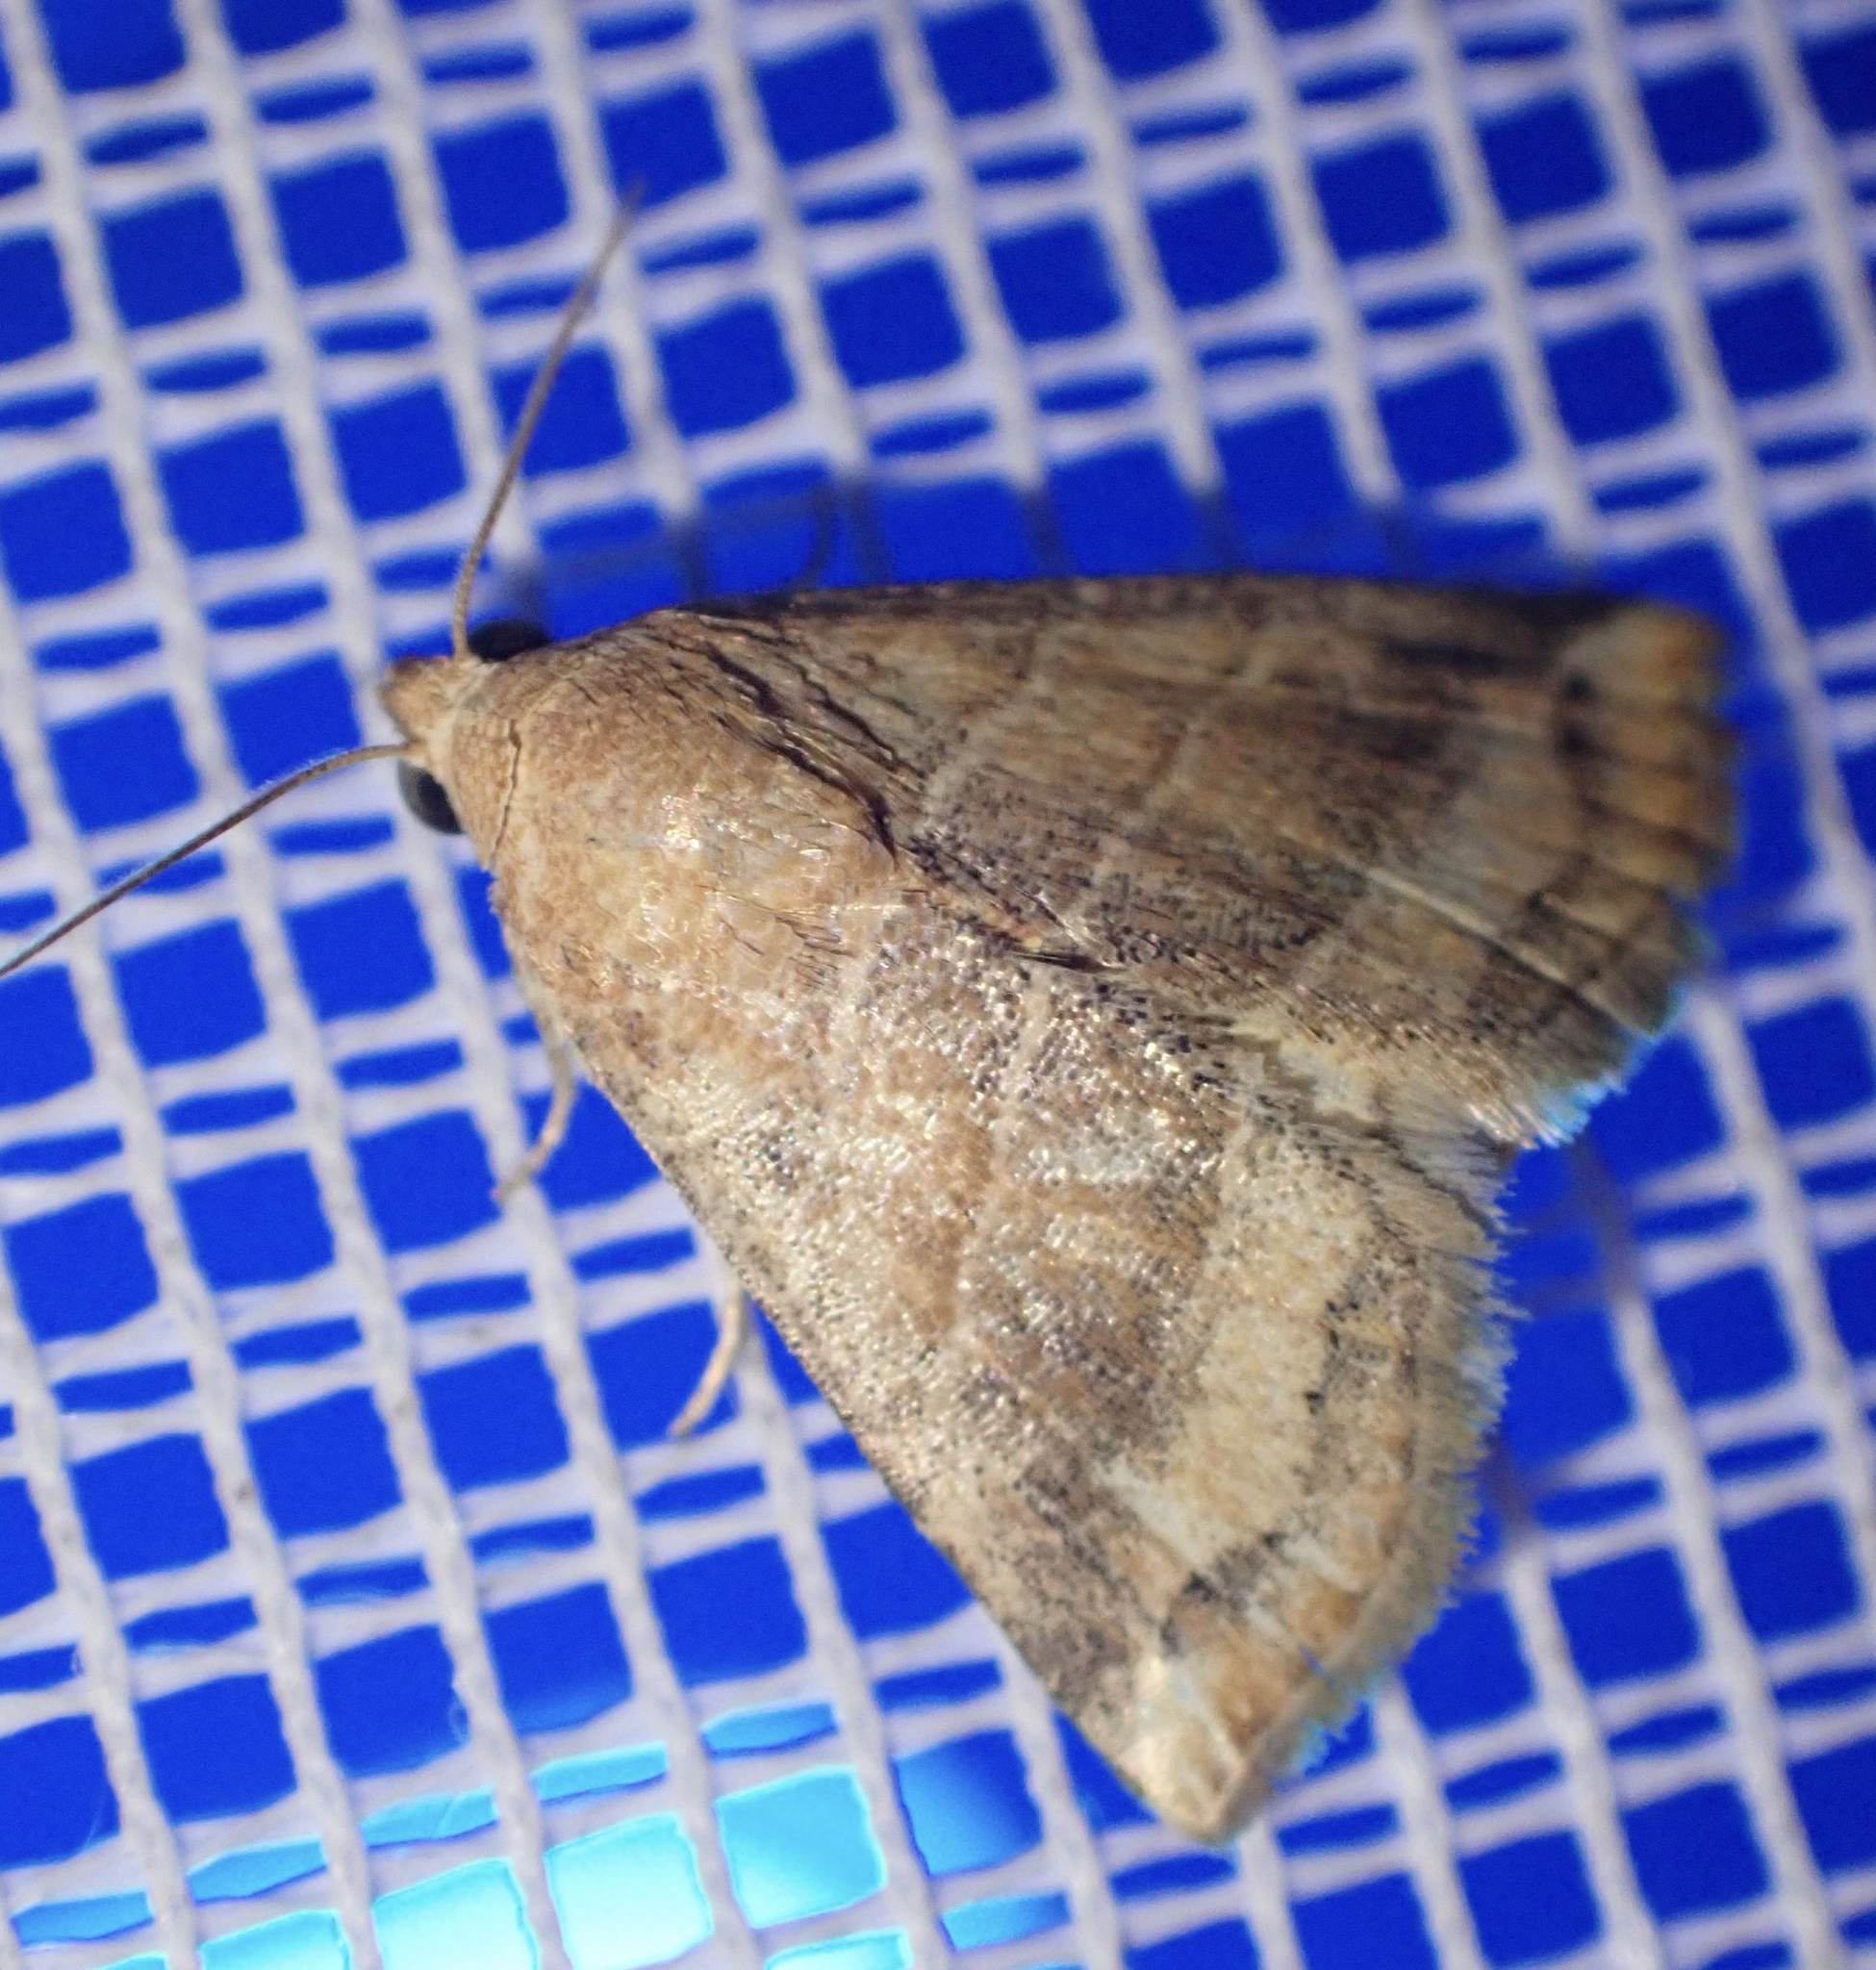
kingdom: Animalia
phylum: Arthropoda
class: Insecta
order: Lepidoptera
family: Noctuidae
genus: Eublemma
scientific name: Eublemma baccatrix
